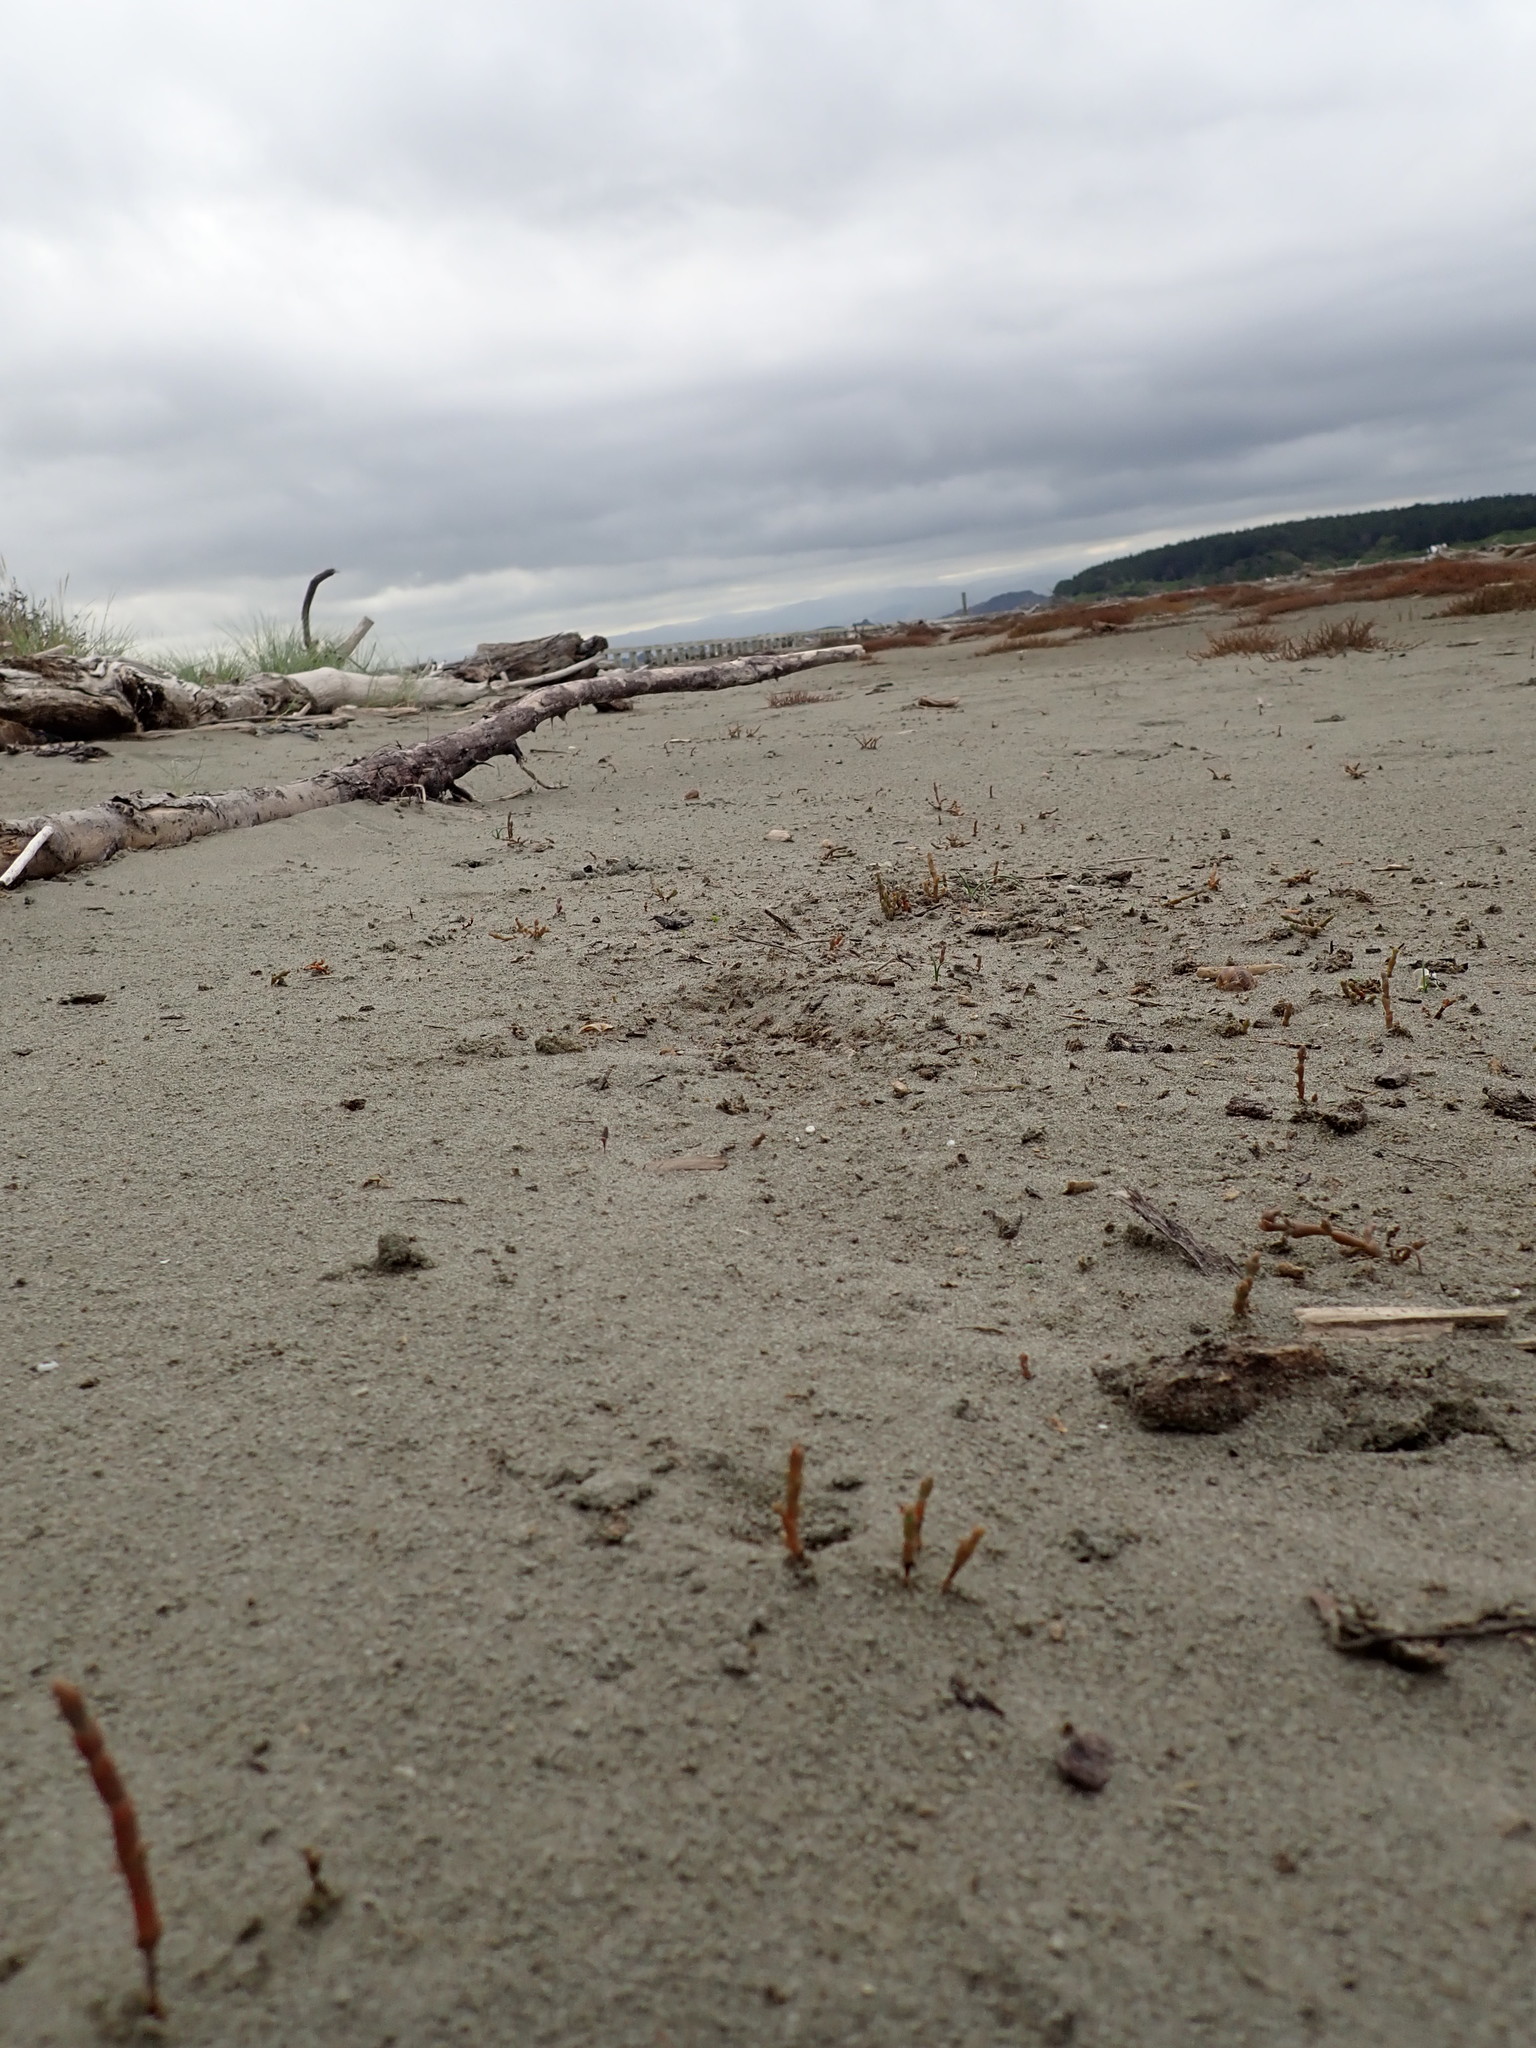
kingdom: Plantae
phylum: Tracheophyta
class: Magnoliopsida
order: Caryophyllales
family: Amaranthaceae
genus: Salicornia
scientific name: Salicornia quinqueflora
